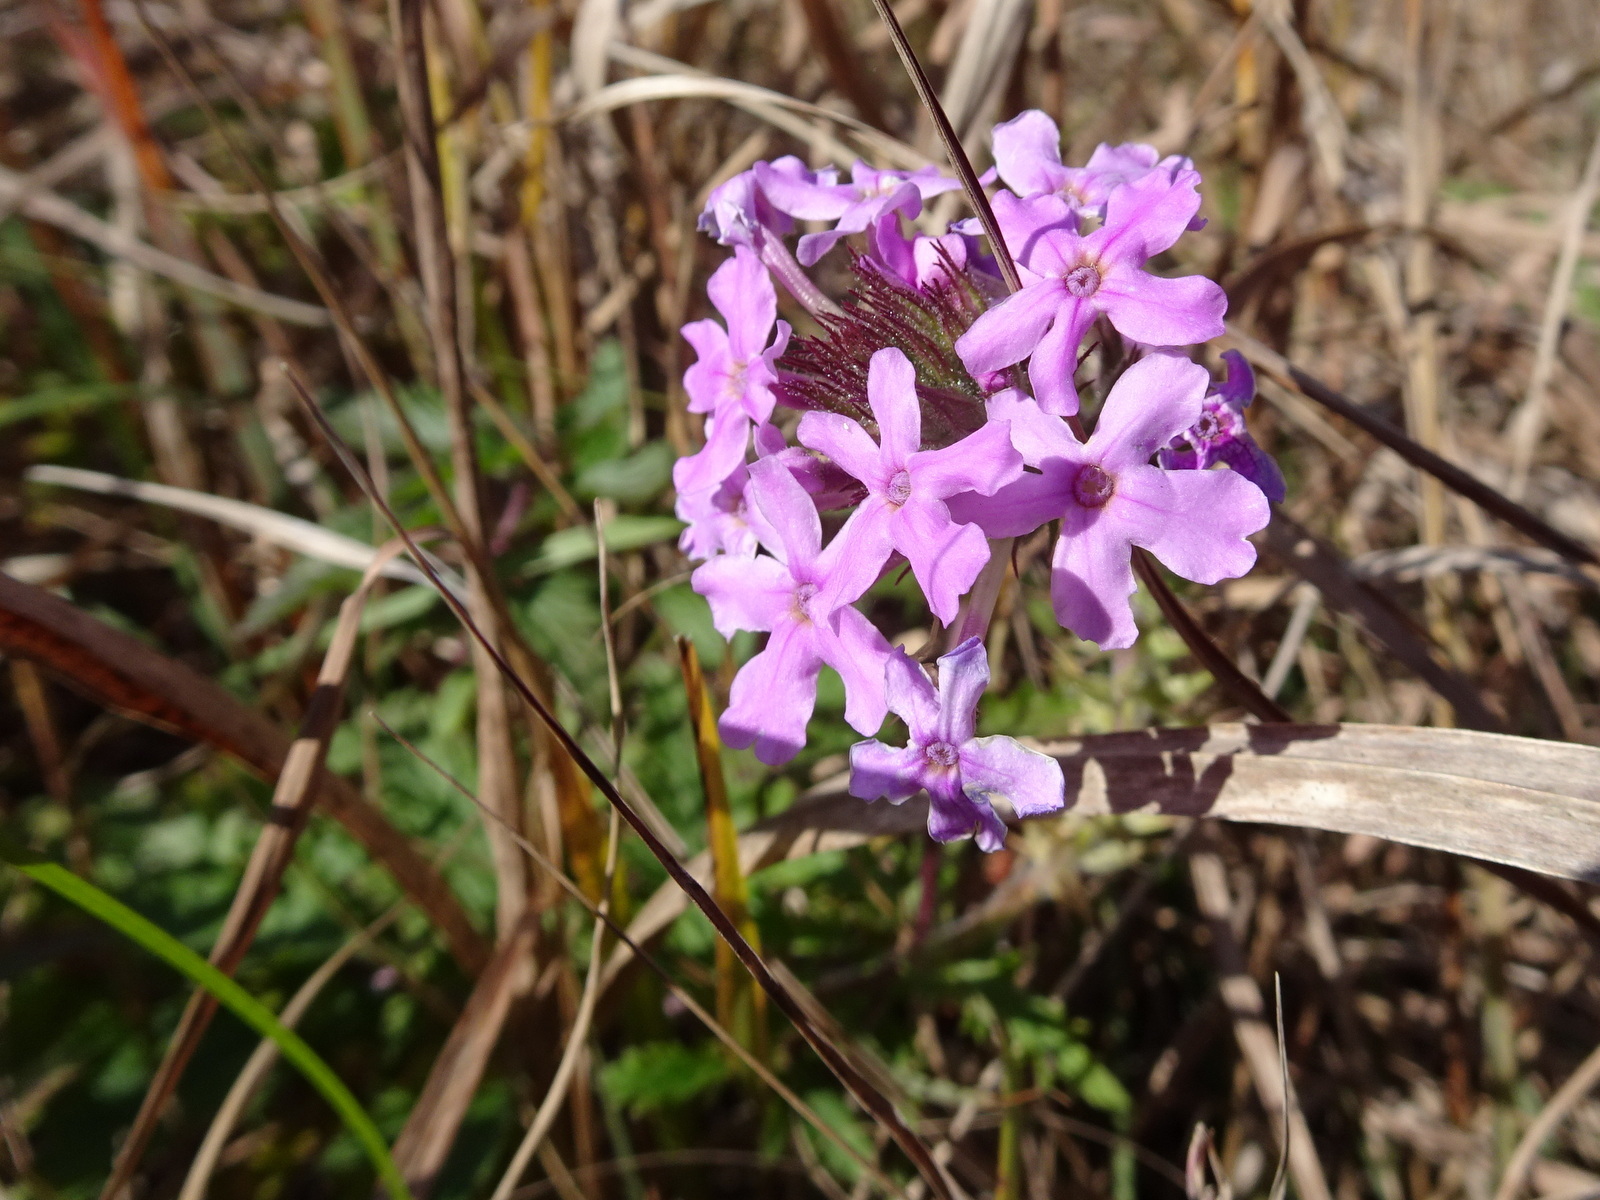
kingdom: Plantae
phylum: Tracheophyta
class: Magnoliopsida
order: Lamiales
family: Verbenaceae
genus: Verbena
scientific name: Verbena canadensis
